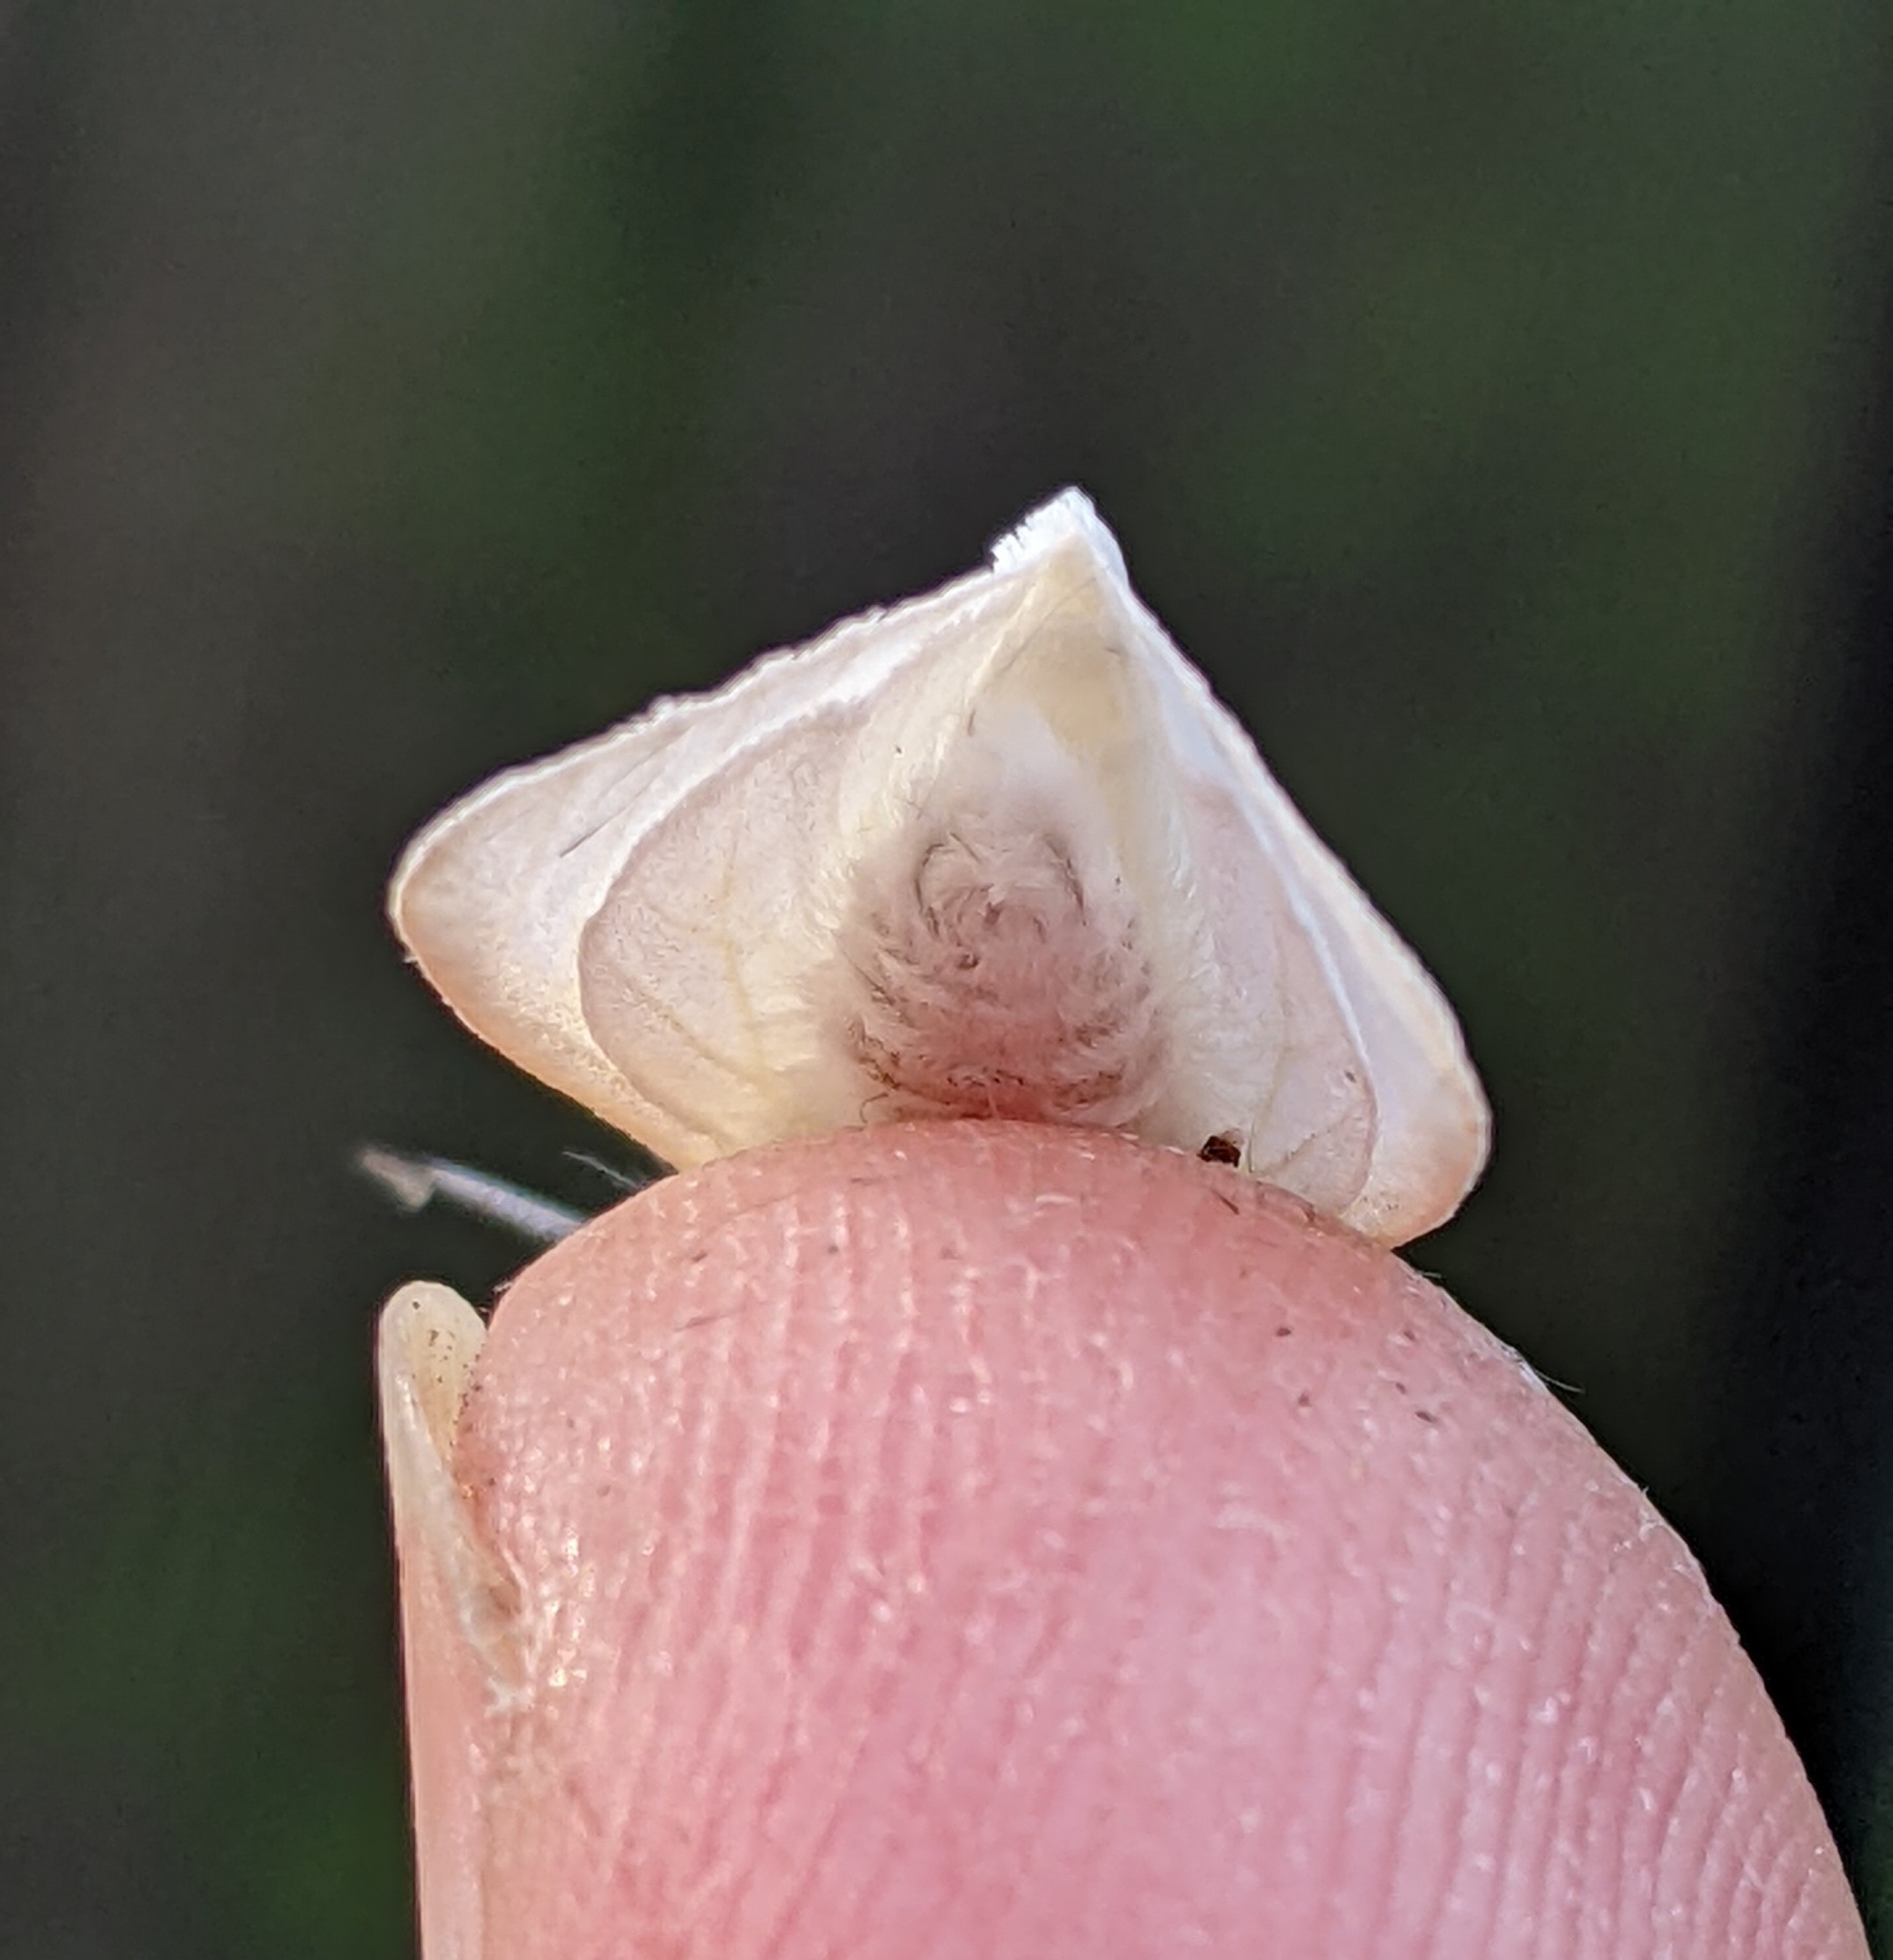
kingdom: Animalia
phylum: Arthropoda
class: Insecta
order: Lepidoptera
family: Erebidae
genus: Hyphantria
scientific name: Hyphantria cunea
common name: American white moth
